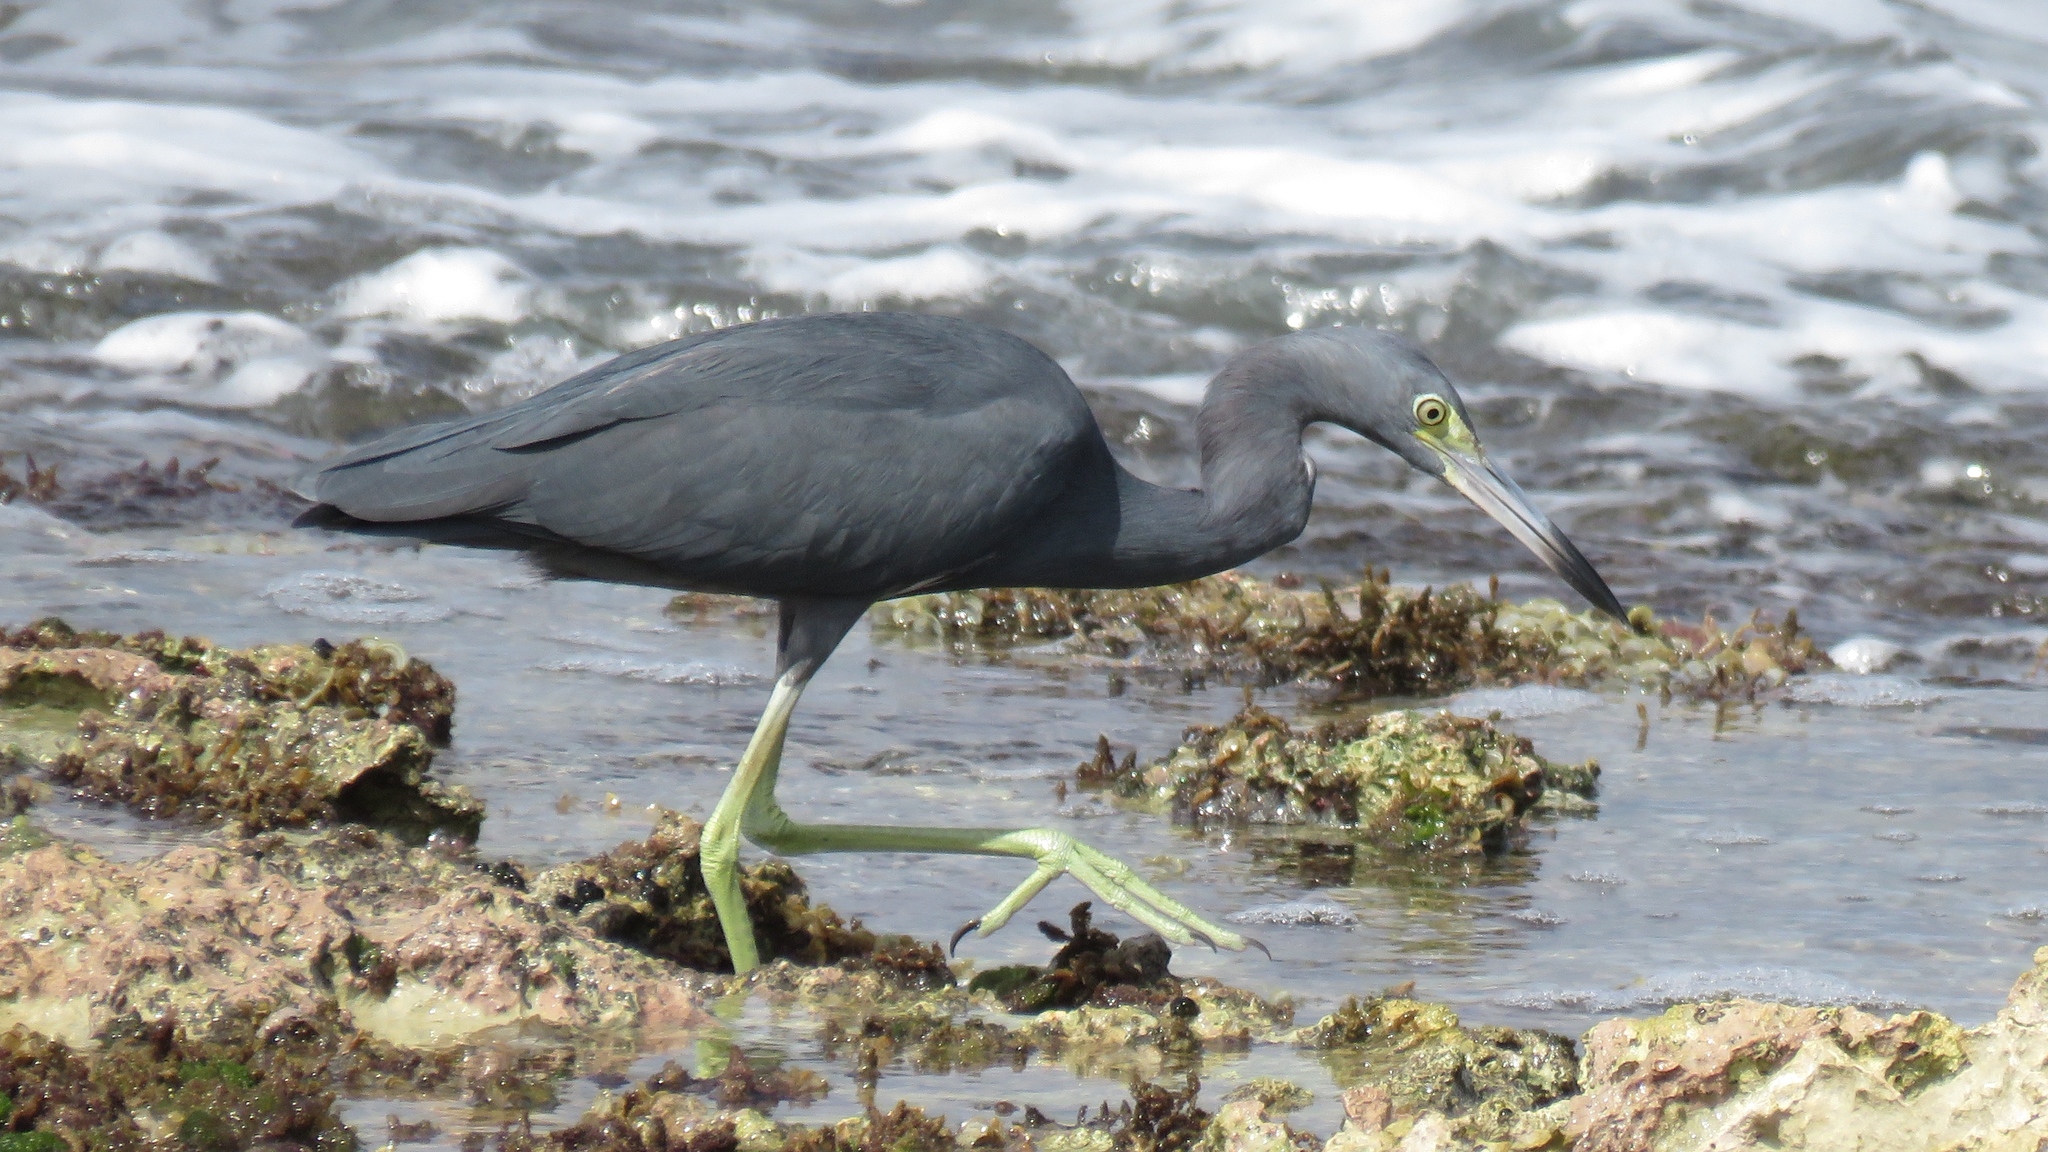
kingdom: Animalia
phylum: Chordata
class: Aves
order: Pelecaniformes
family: Ardeidae
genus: Egretta
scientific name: Egretta caerulea
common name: Little blue heron
